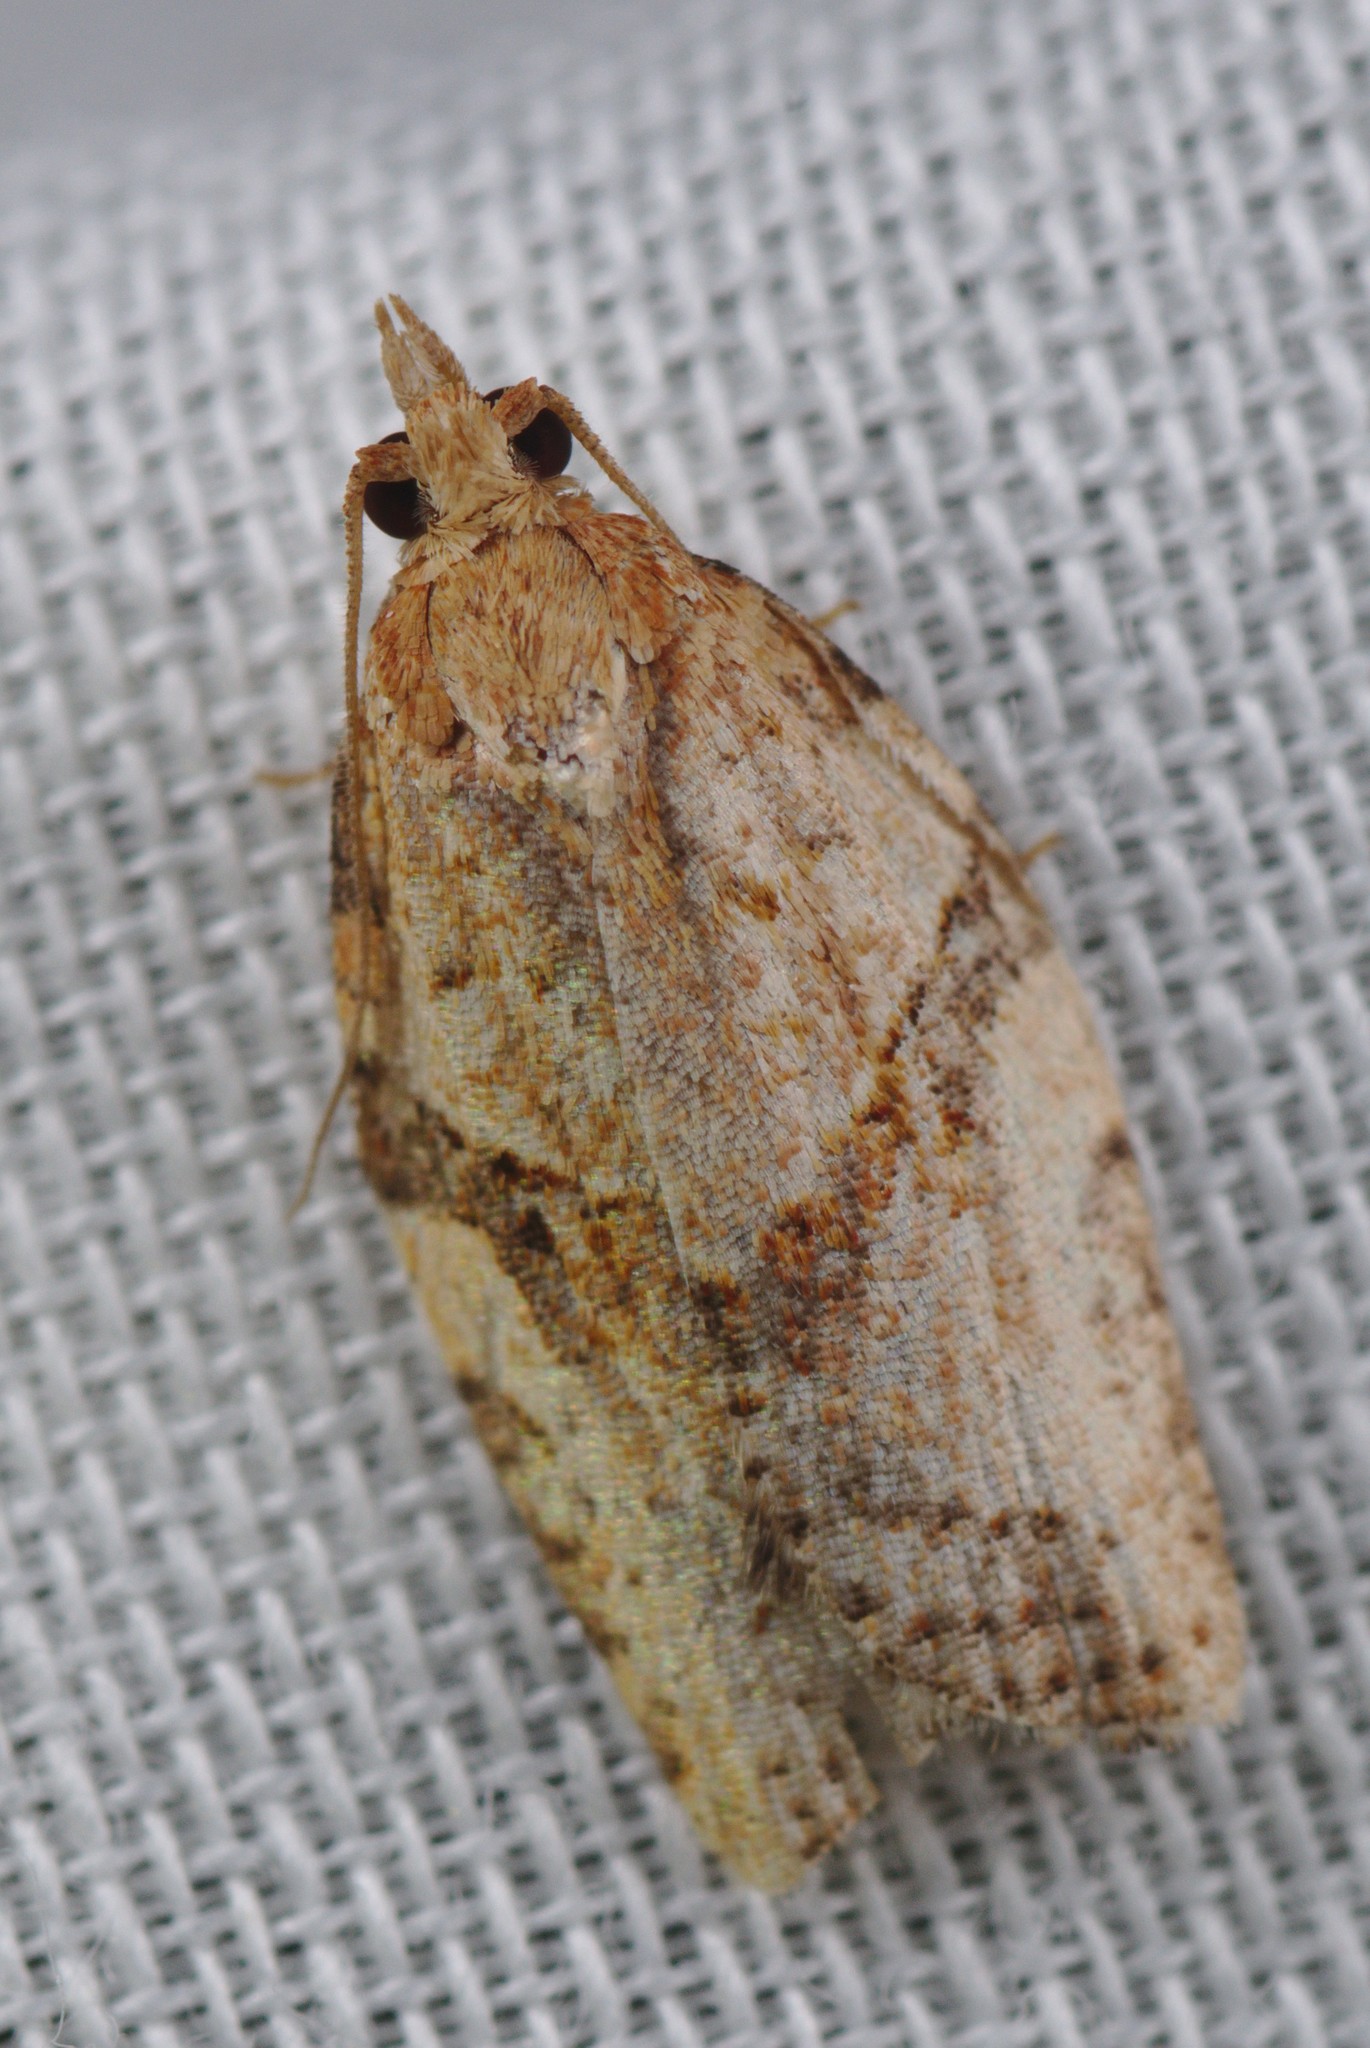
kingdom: Animalia
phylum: Arthropoda
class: Insecta
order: Lepidoptera
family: Tortricidae
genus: Epiphyas
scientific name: Epiphyas postvittana
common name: Light brown apple moth
